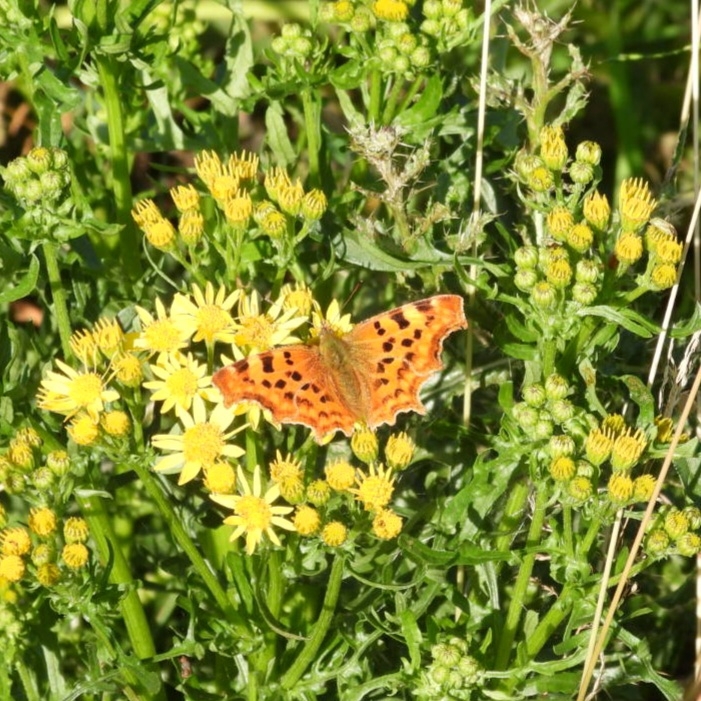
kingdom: Animalia
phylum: Arthropoda
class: Insecta
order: Lepidoptera
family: Nymphalidae
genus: Polygonia
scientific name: Polygonia c-album
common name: Comma
